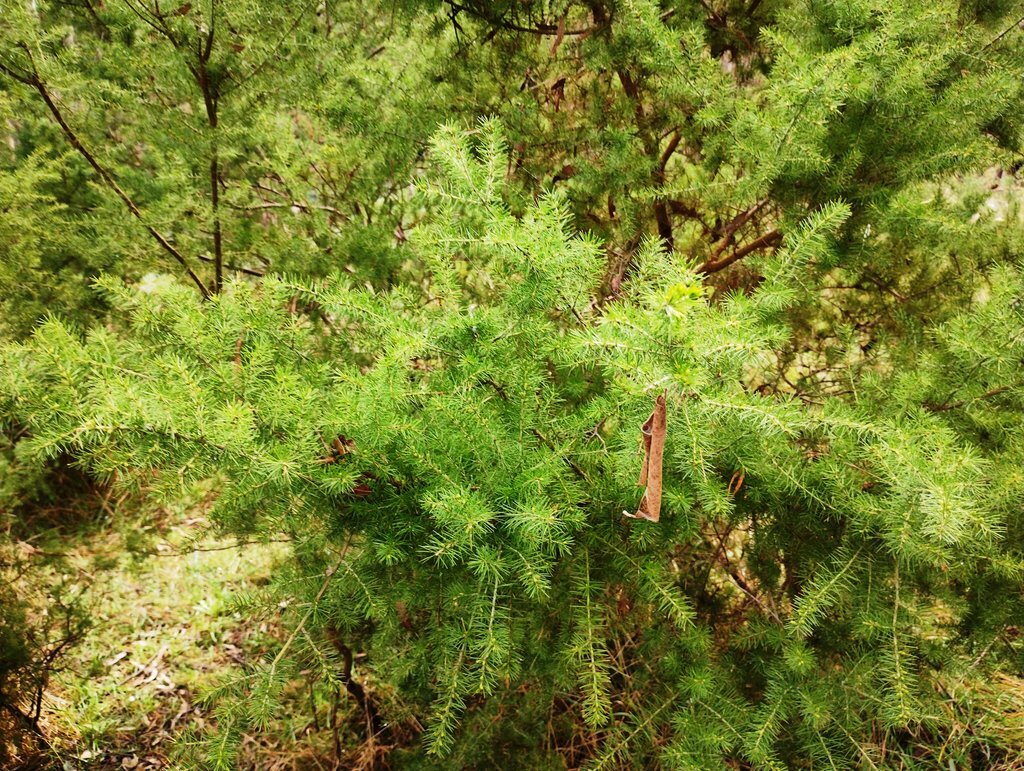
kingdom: Plantae
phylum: Tracheophyta
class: Magnoliopsida
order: Fabales
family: Fabaceae
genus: Acacia
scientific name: Acacia verticillata
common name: Prickly moses
